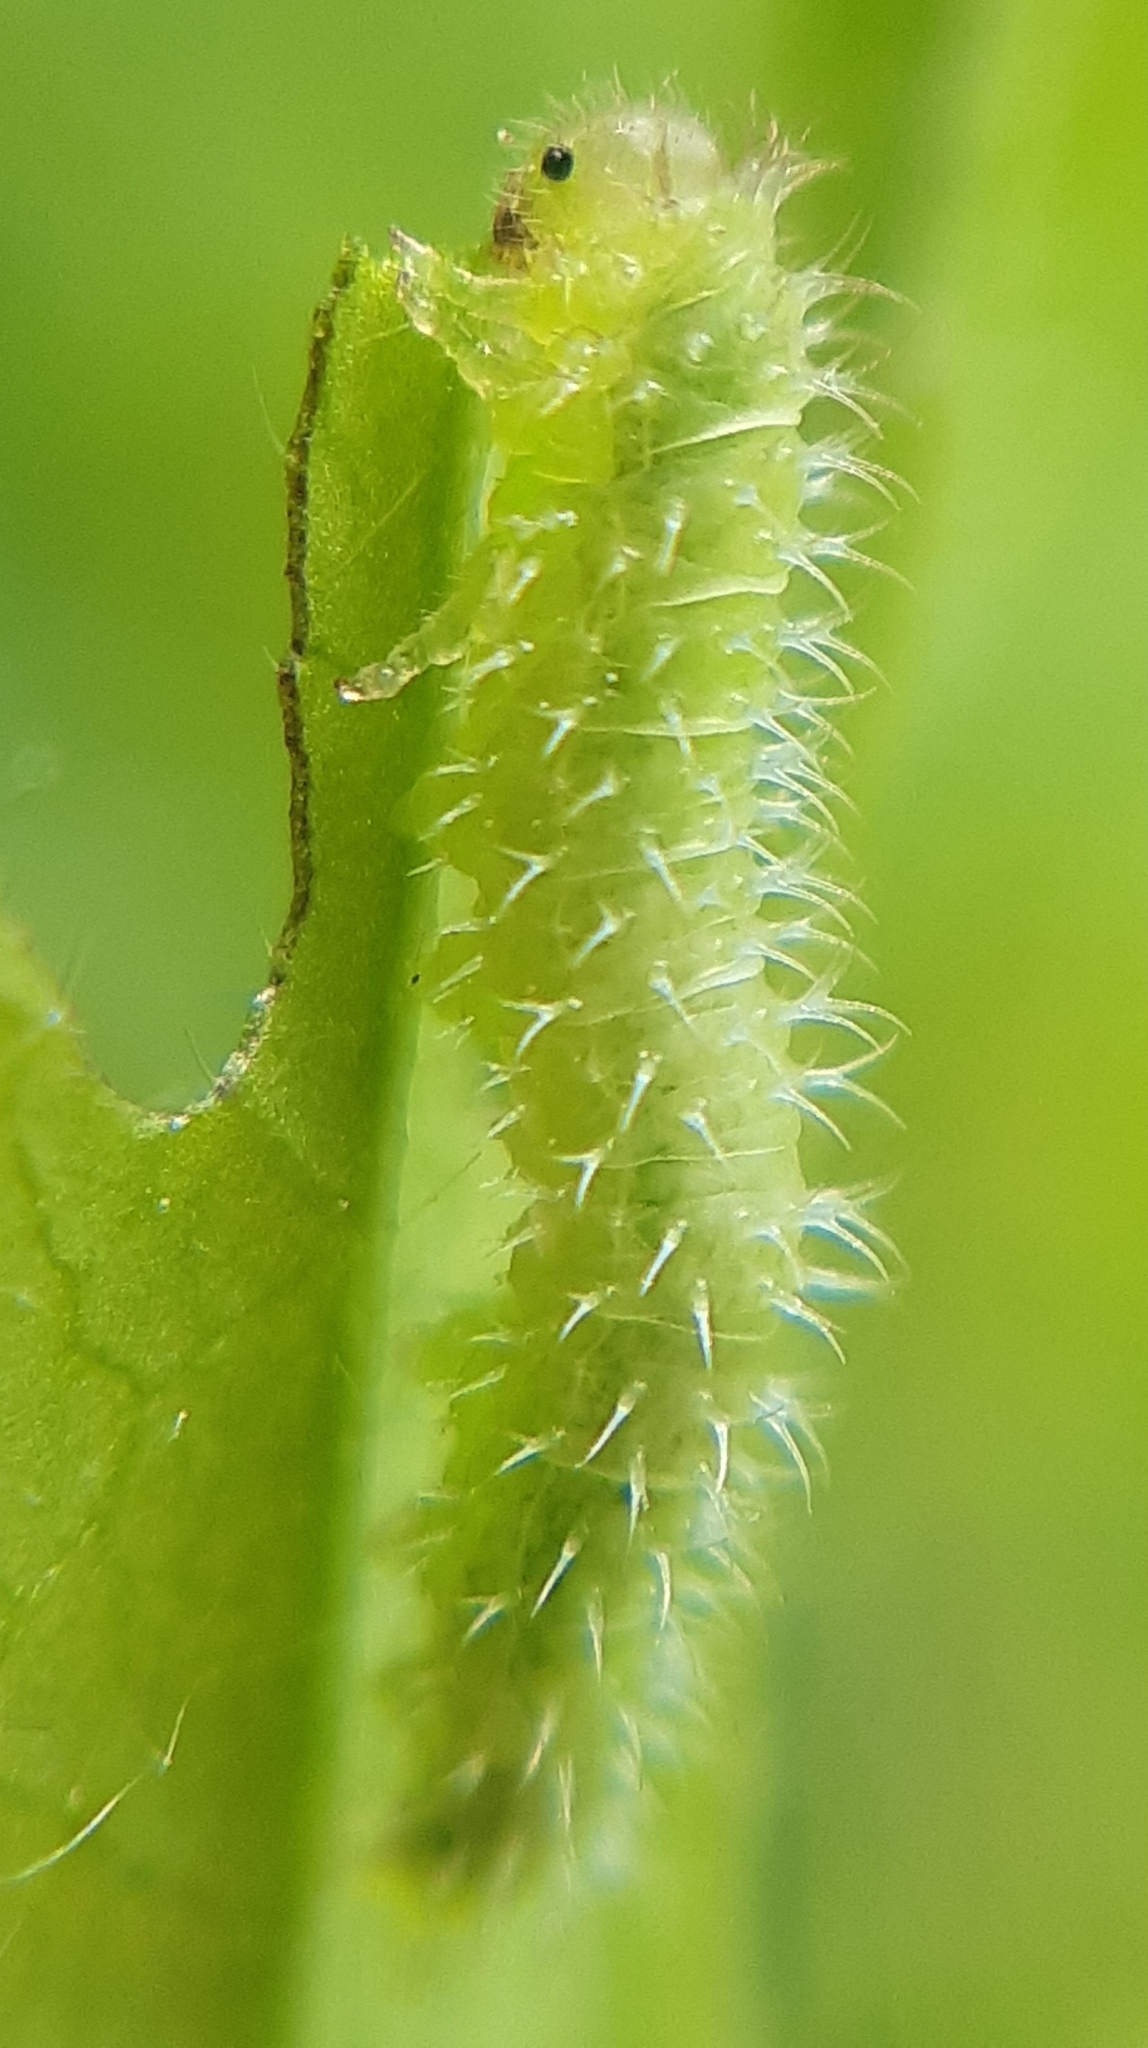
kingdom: Animalia
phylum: Arthropoda
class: Insecta
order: Hymenoptera
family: Tenthredinidae
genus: Claremontia
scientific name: Claremontia waldheimii
